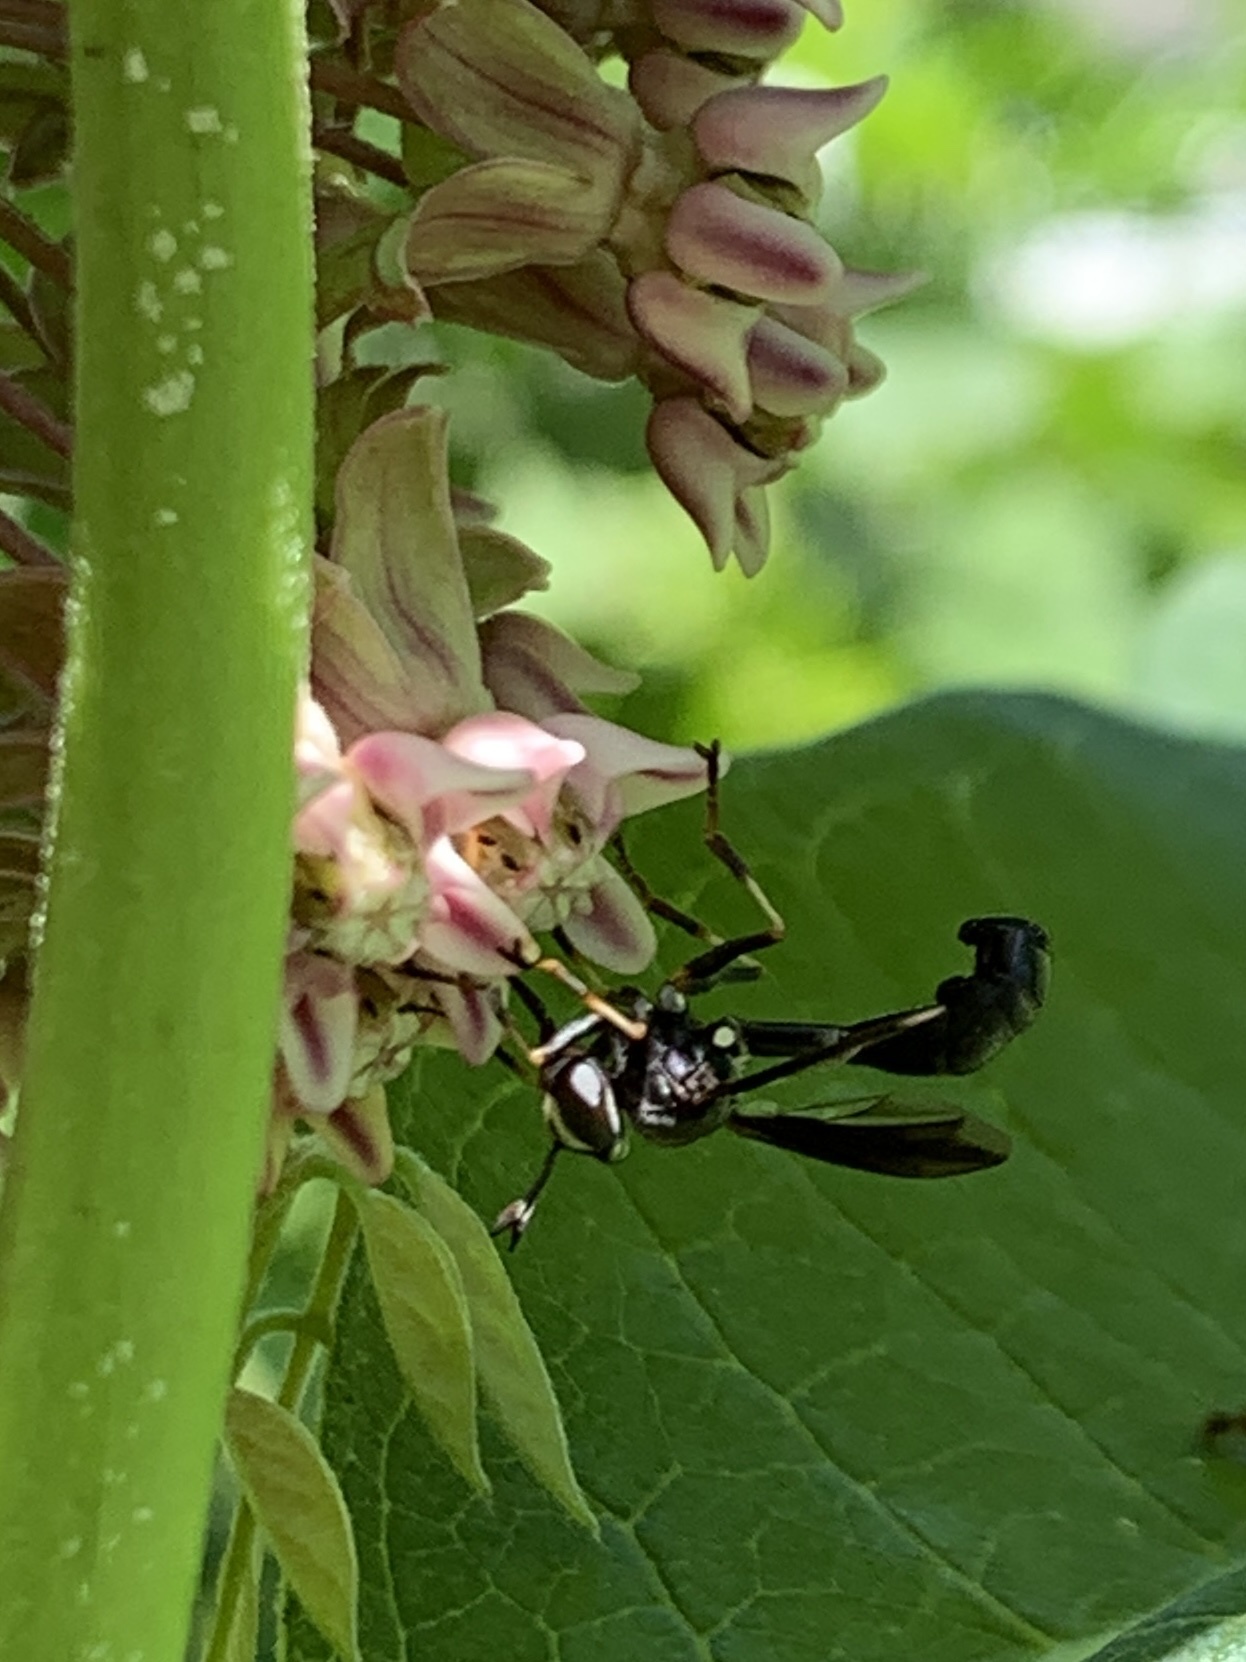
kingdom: Animalia
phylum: Arthropoda
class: Insecta
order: Diptera
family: Conopidae
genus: Physocephala
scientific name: Physocephala tibialis
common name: Common eastern physocephala
